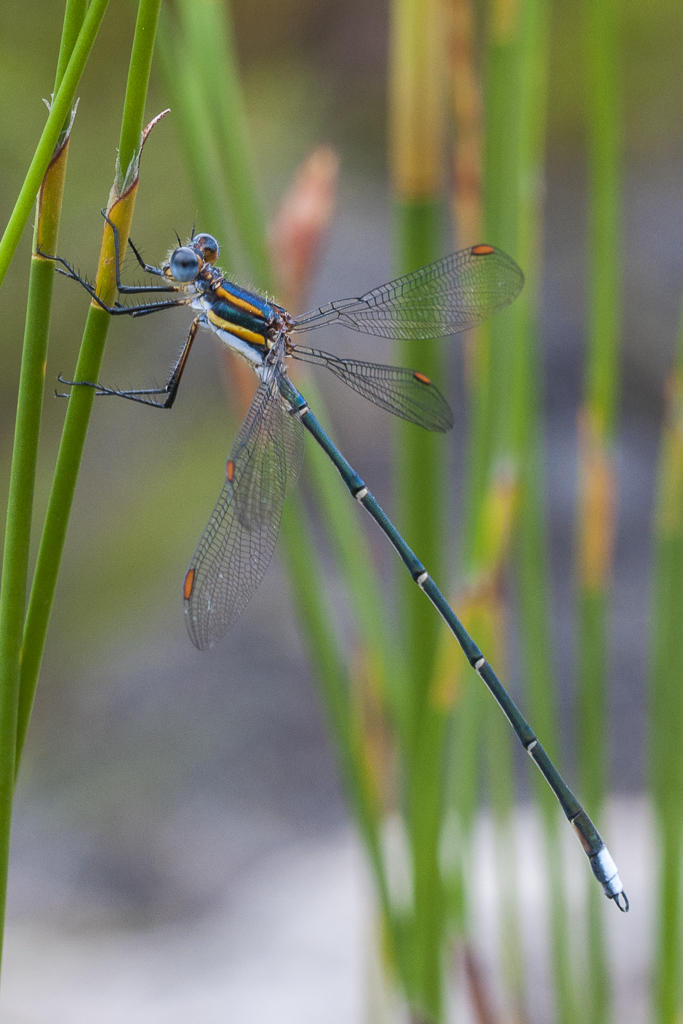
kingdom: Animalia
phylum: Arthropoda
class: Insecta
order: Odonata
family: Synlestidae
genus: Chlorolestes
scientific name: Chlorolestes conspicuus
